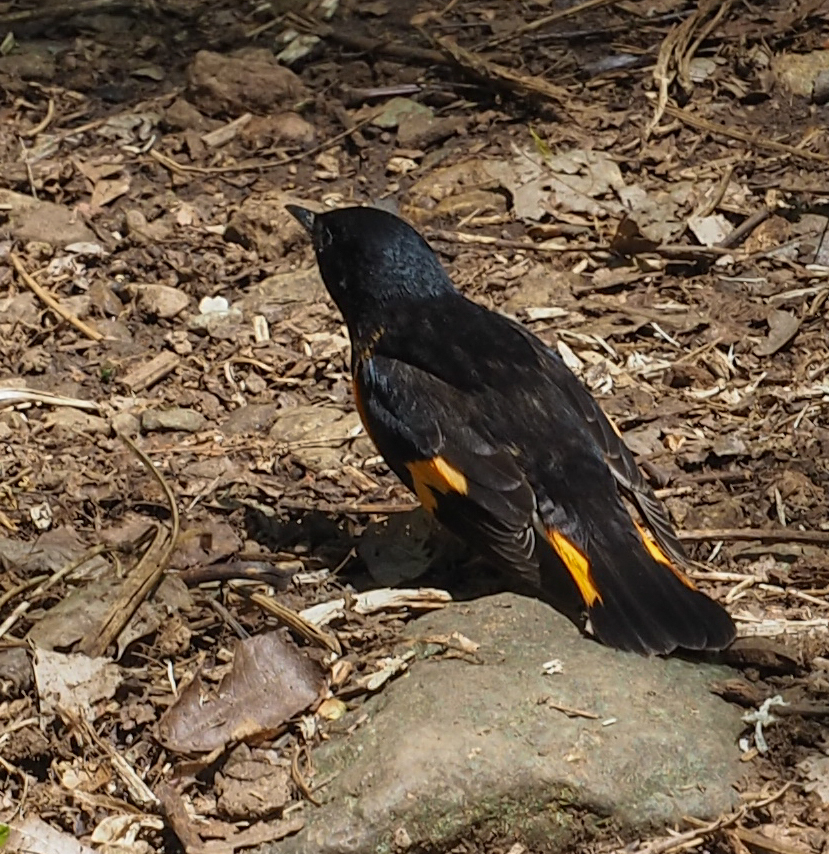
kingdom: Animalia
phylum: Chordata
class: Aves
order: Passeriformes
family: Parulidae
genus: Setophaga
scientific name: Setophaga ruticilla
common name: American redstart
